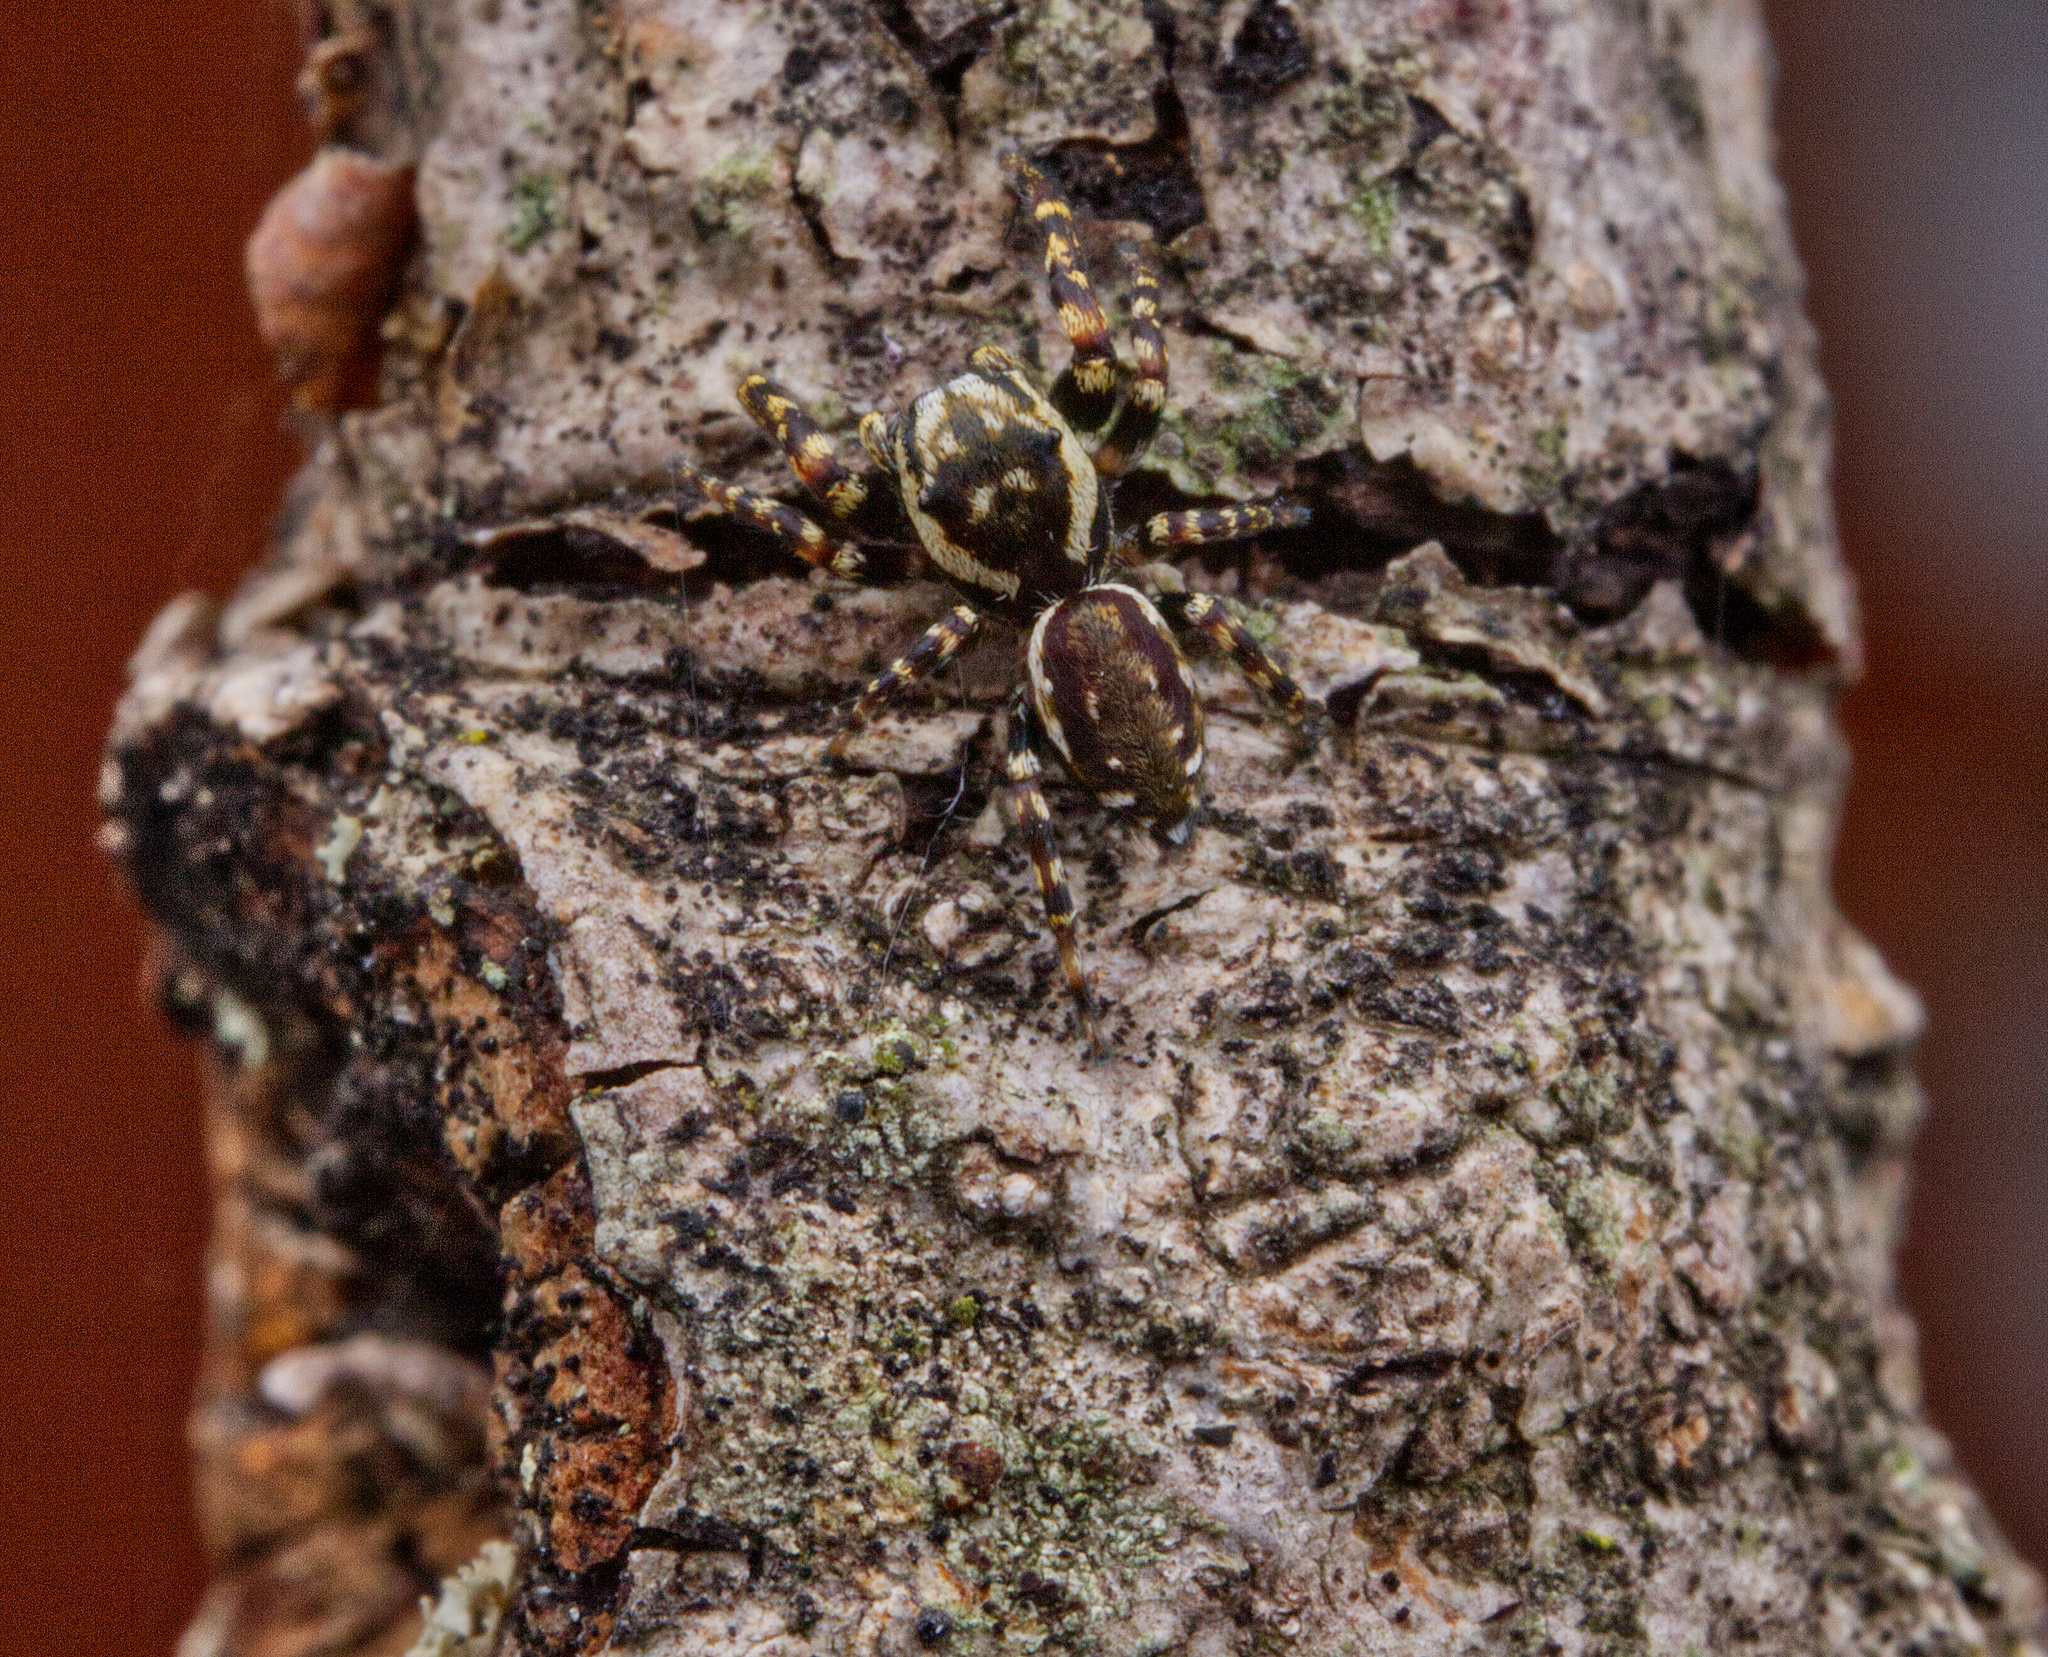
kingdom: Animalia
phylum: Arthropoda
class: Arachnida
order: Araneae
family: Salticidae
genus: Pelegrina
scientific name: Pelegrina galathea
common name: Jumping spiders
